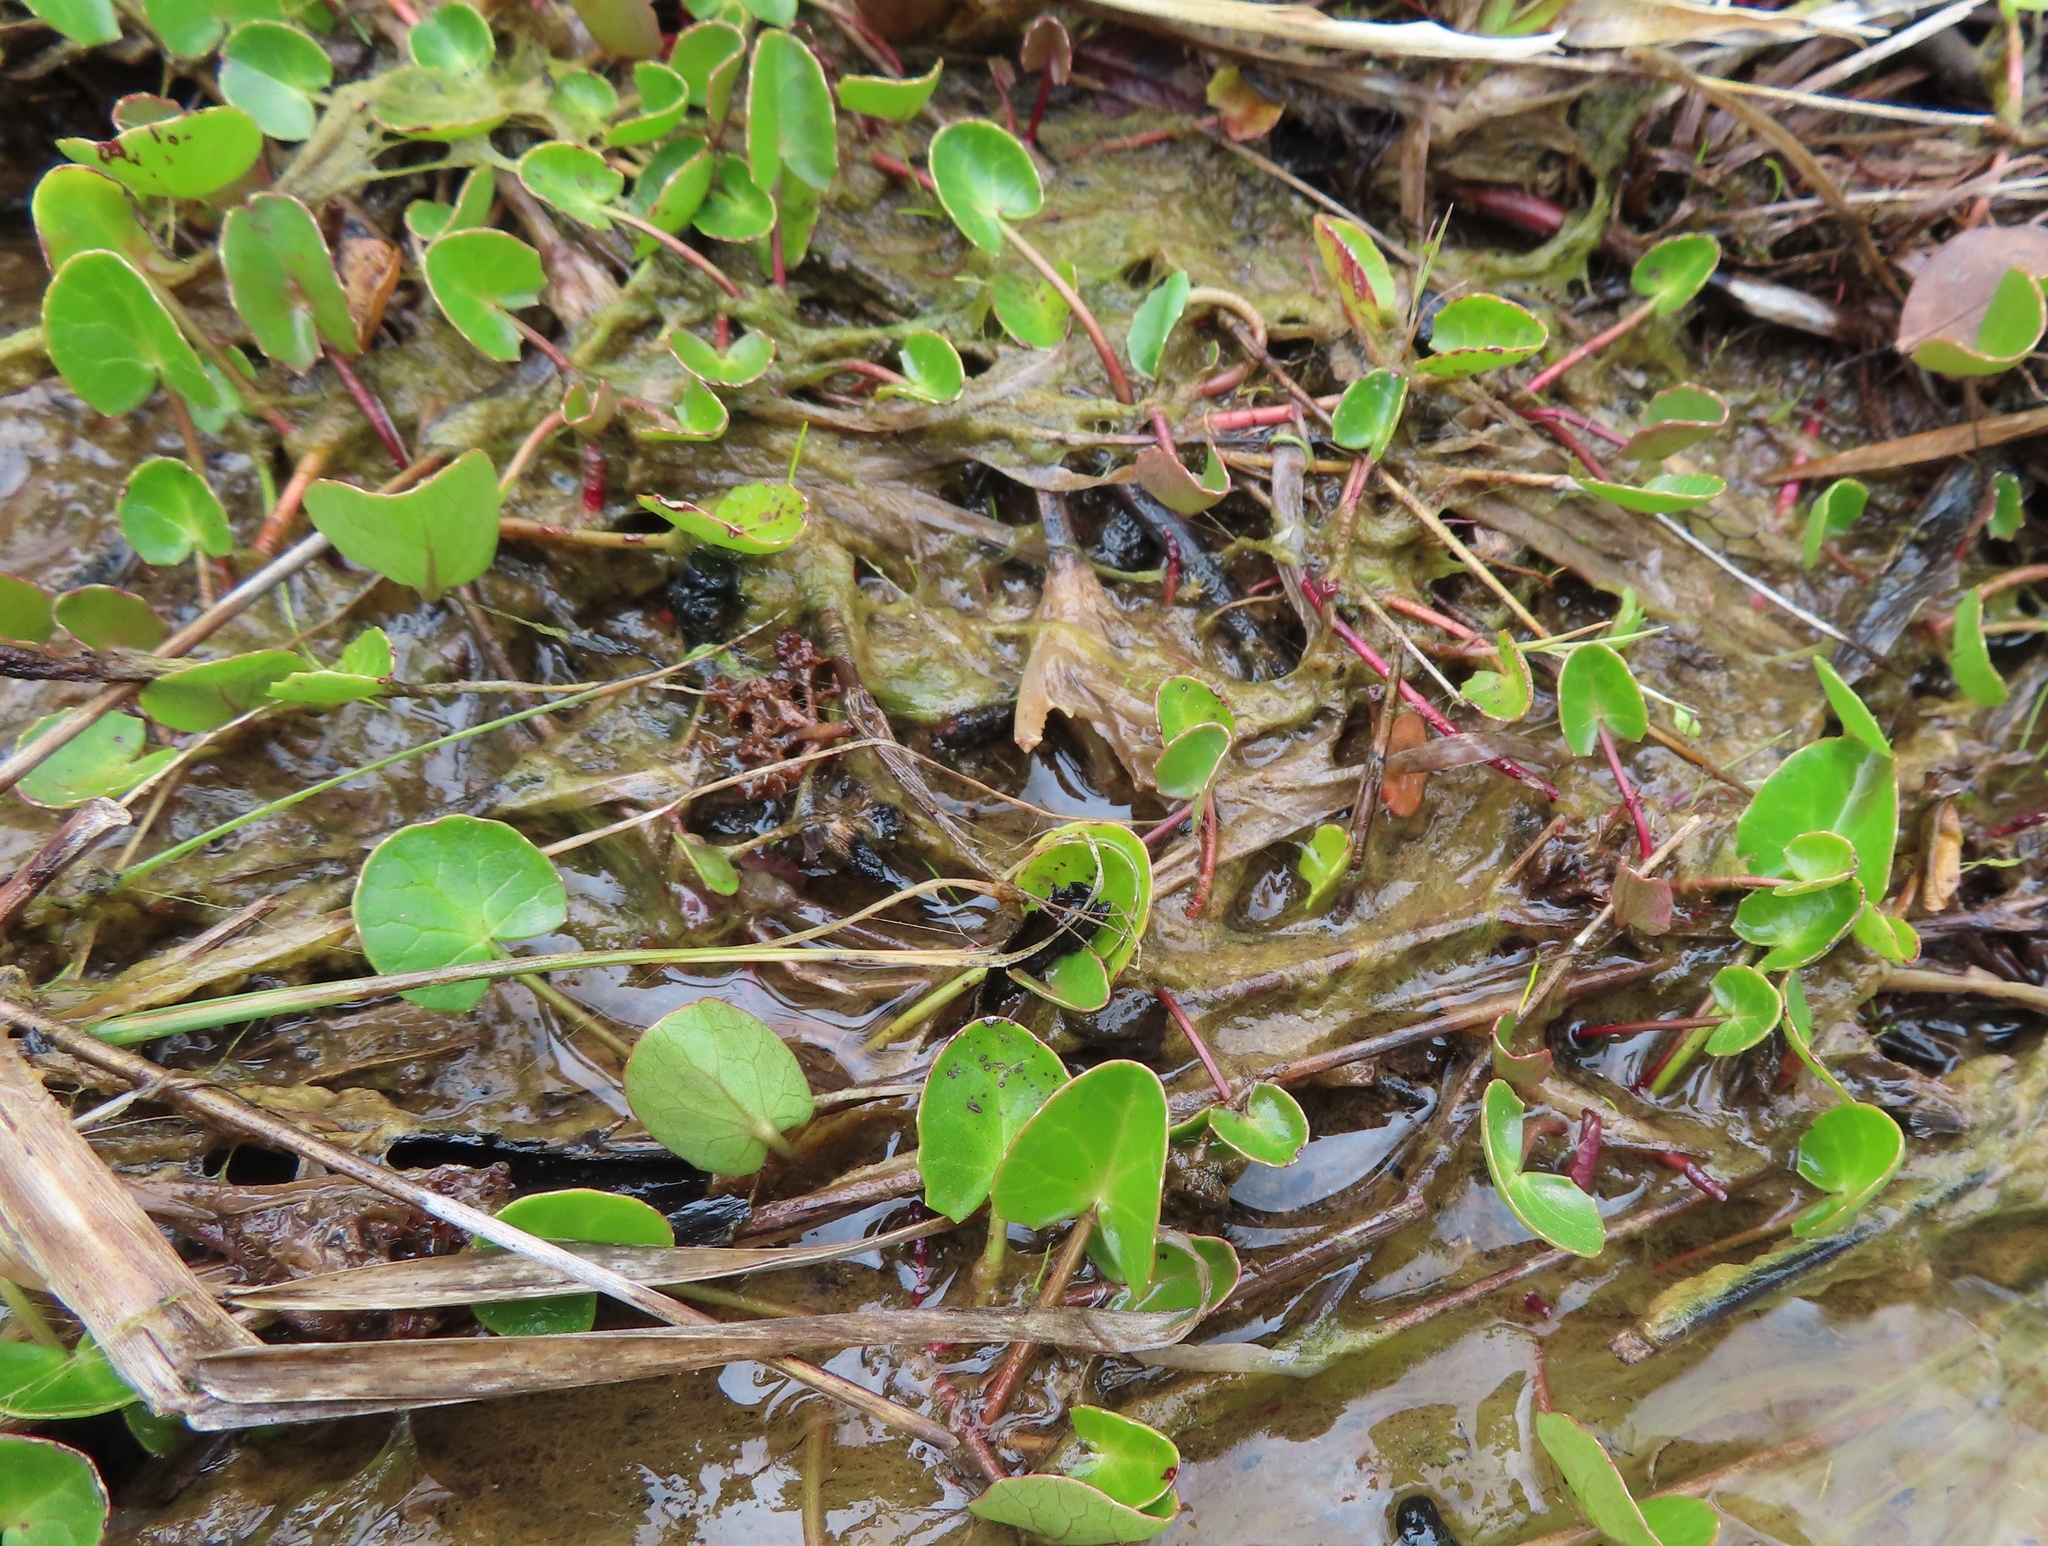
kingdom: Plantae
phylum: Tracheophyta
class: Magnoliopsida
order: Apiales
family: Apiaceae
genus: Centella
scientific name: Centella asiatica
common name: Spadeleaf
